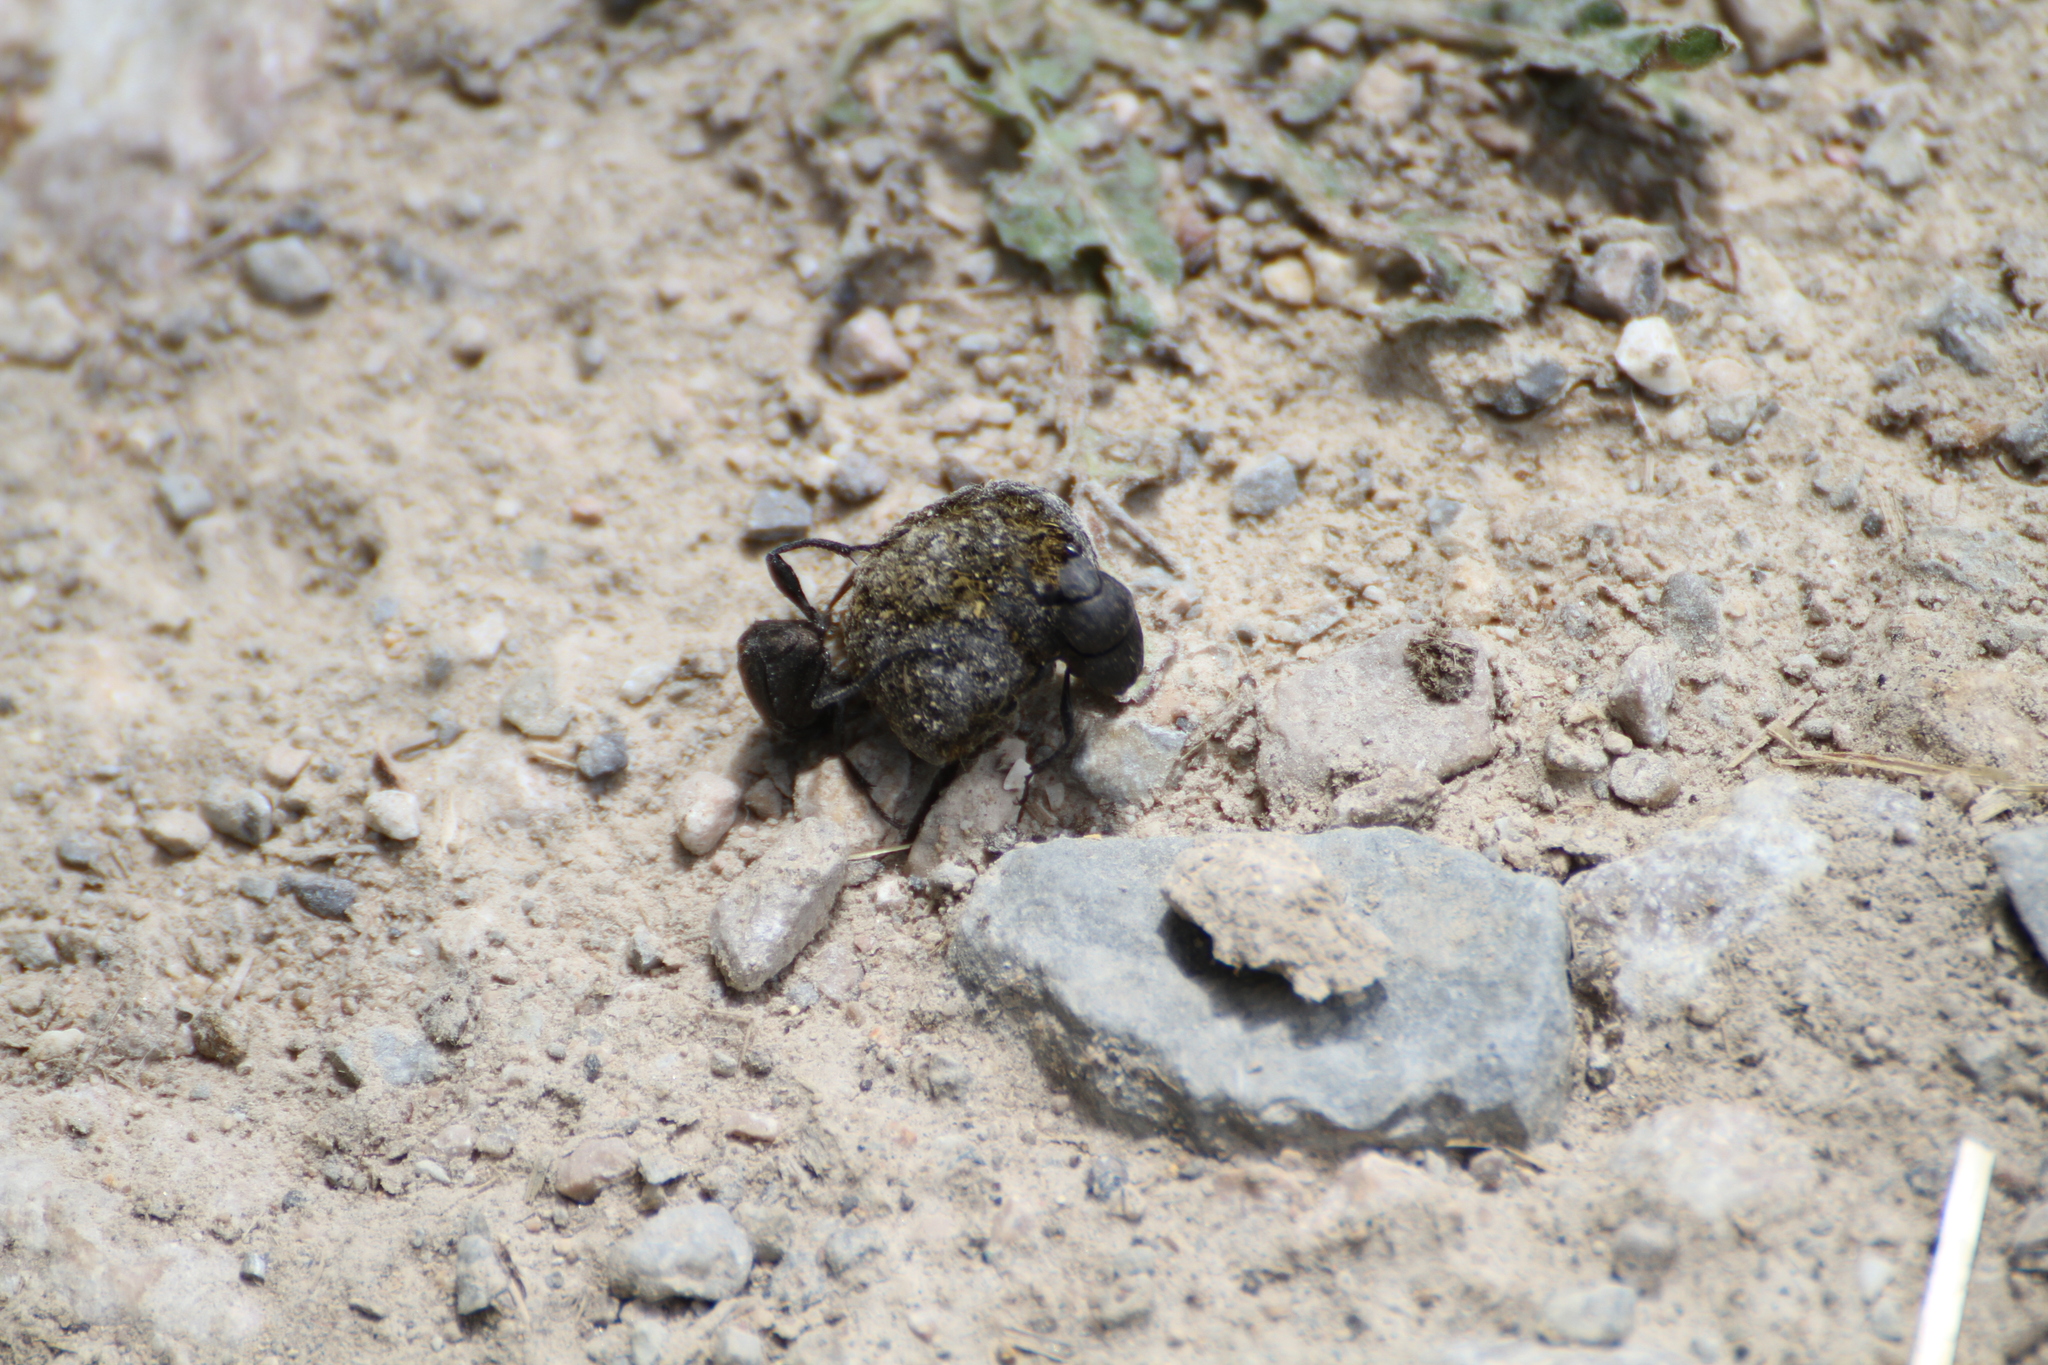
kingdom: Animalia
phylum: Arthropoda
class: Insecta
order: Coleoptera
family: Scarabaeidae
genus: Sisyphus
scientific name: Sisyphus schaefferi
